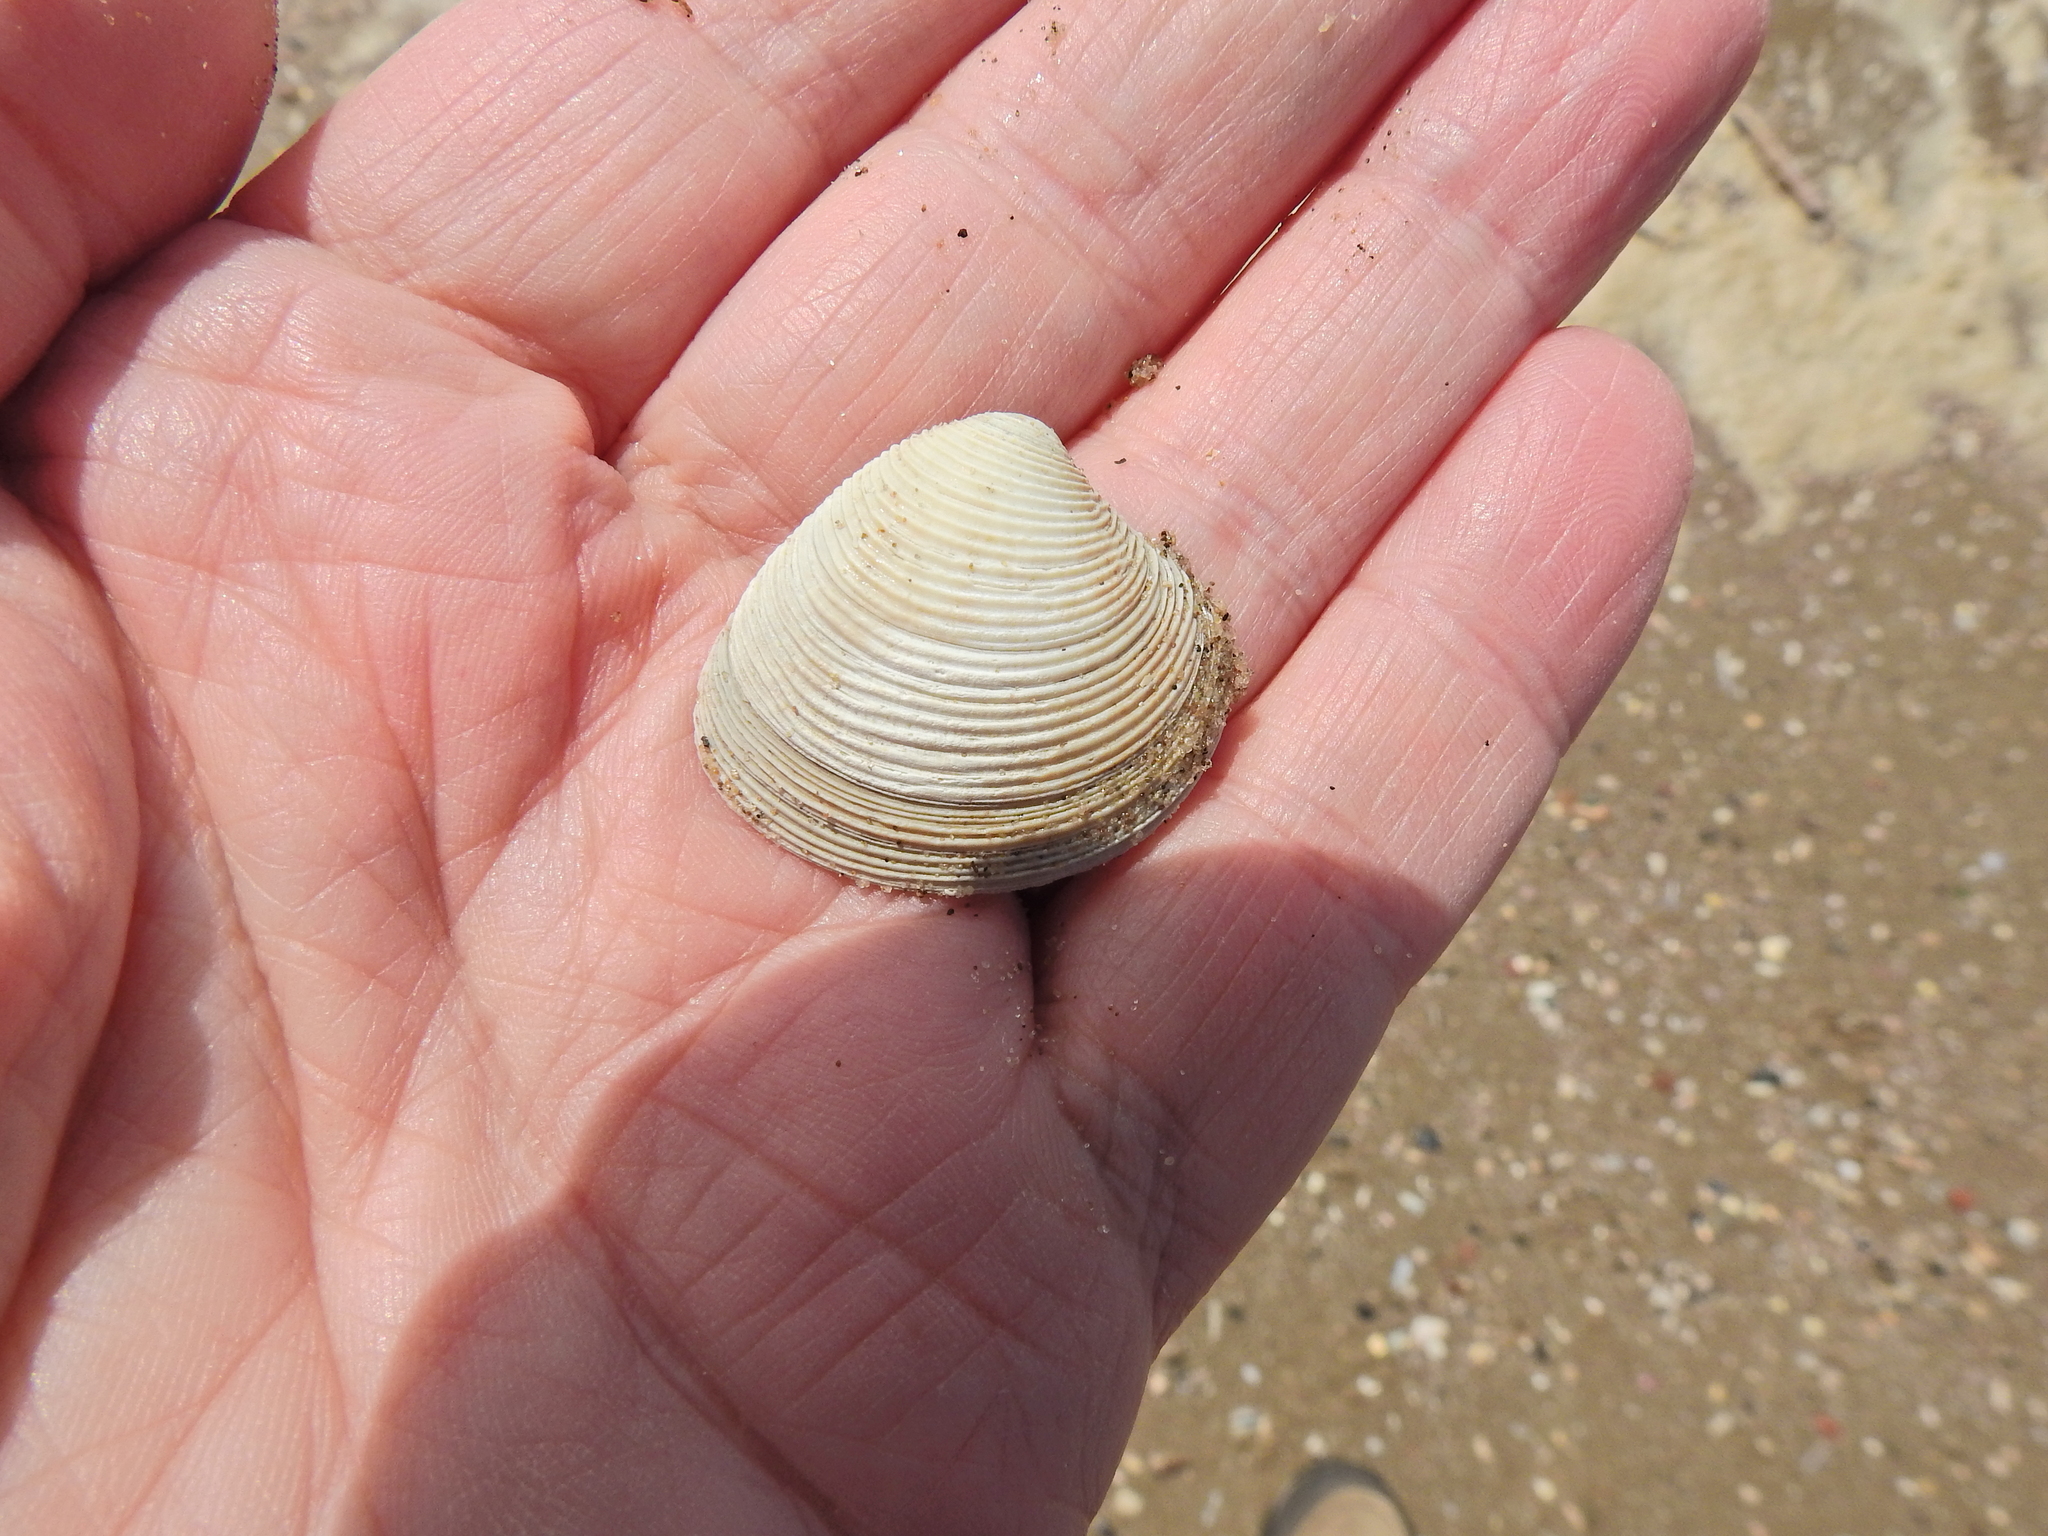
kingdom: Animalia
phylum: Mollusca
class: Bivalvia
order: Venerida
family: Veneridae
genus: Chamelea
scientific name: Chamelea striatula
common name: Striped venus
